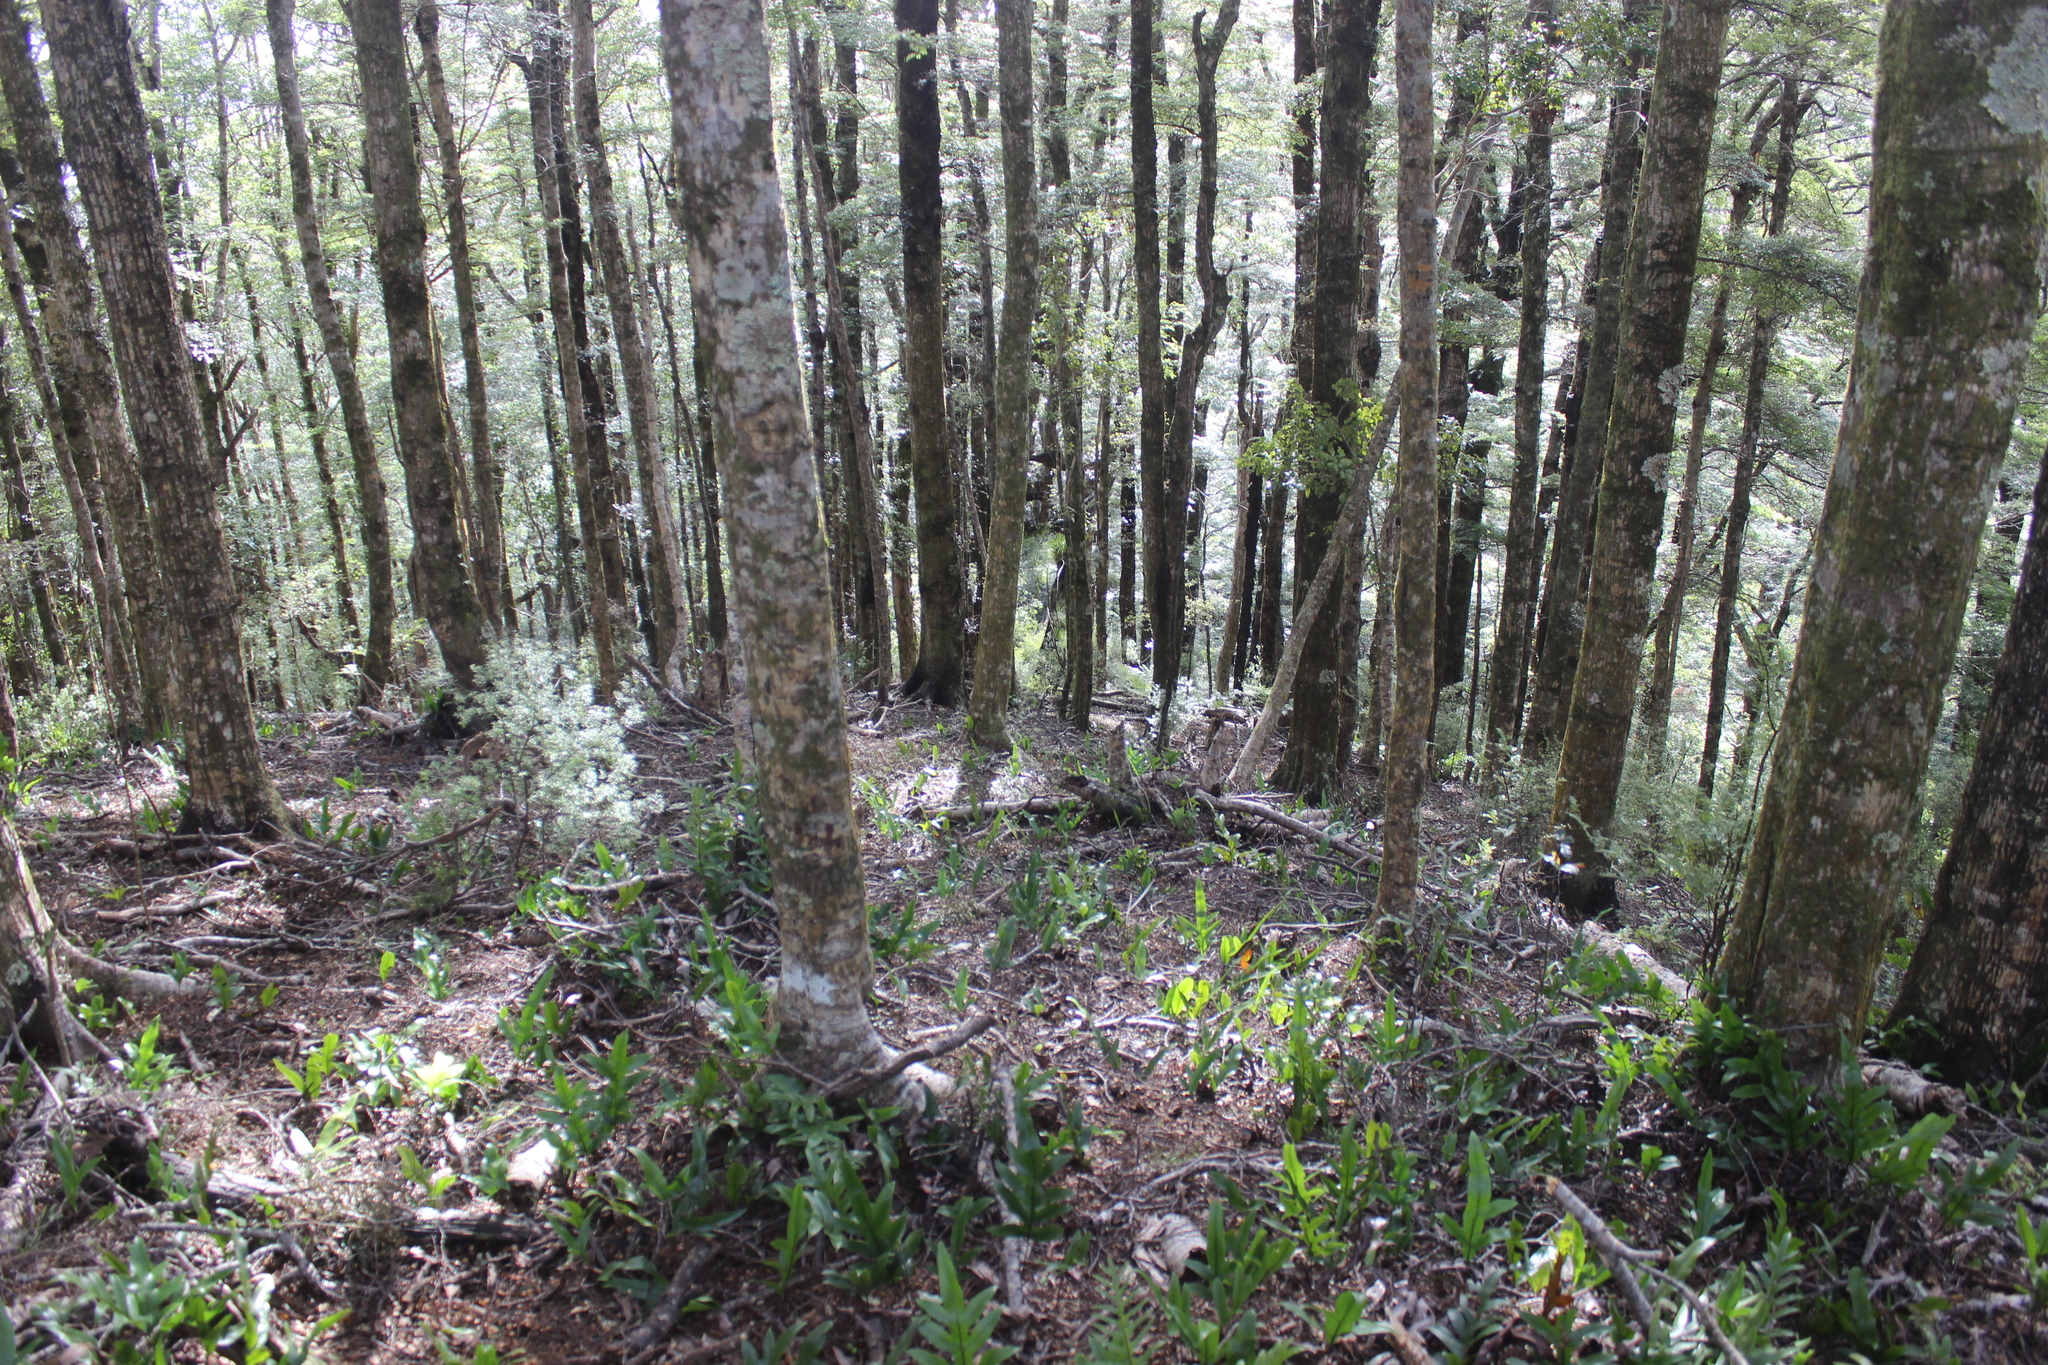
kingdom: Plantae
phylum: Tracheophyta
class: Magnoliopsida
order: Fagales
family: Nothofagaceae
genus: Nothofagus
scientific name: Nothofagus menziesii
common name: Silver beech
